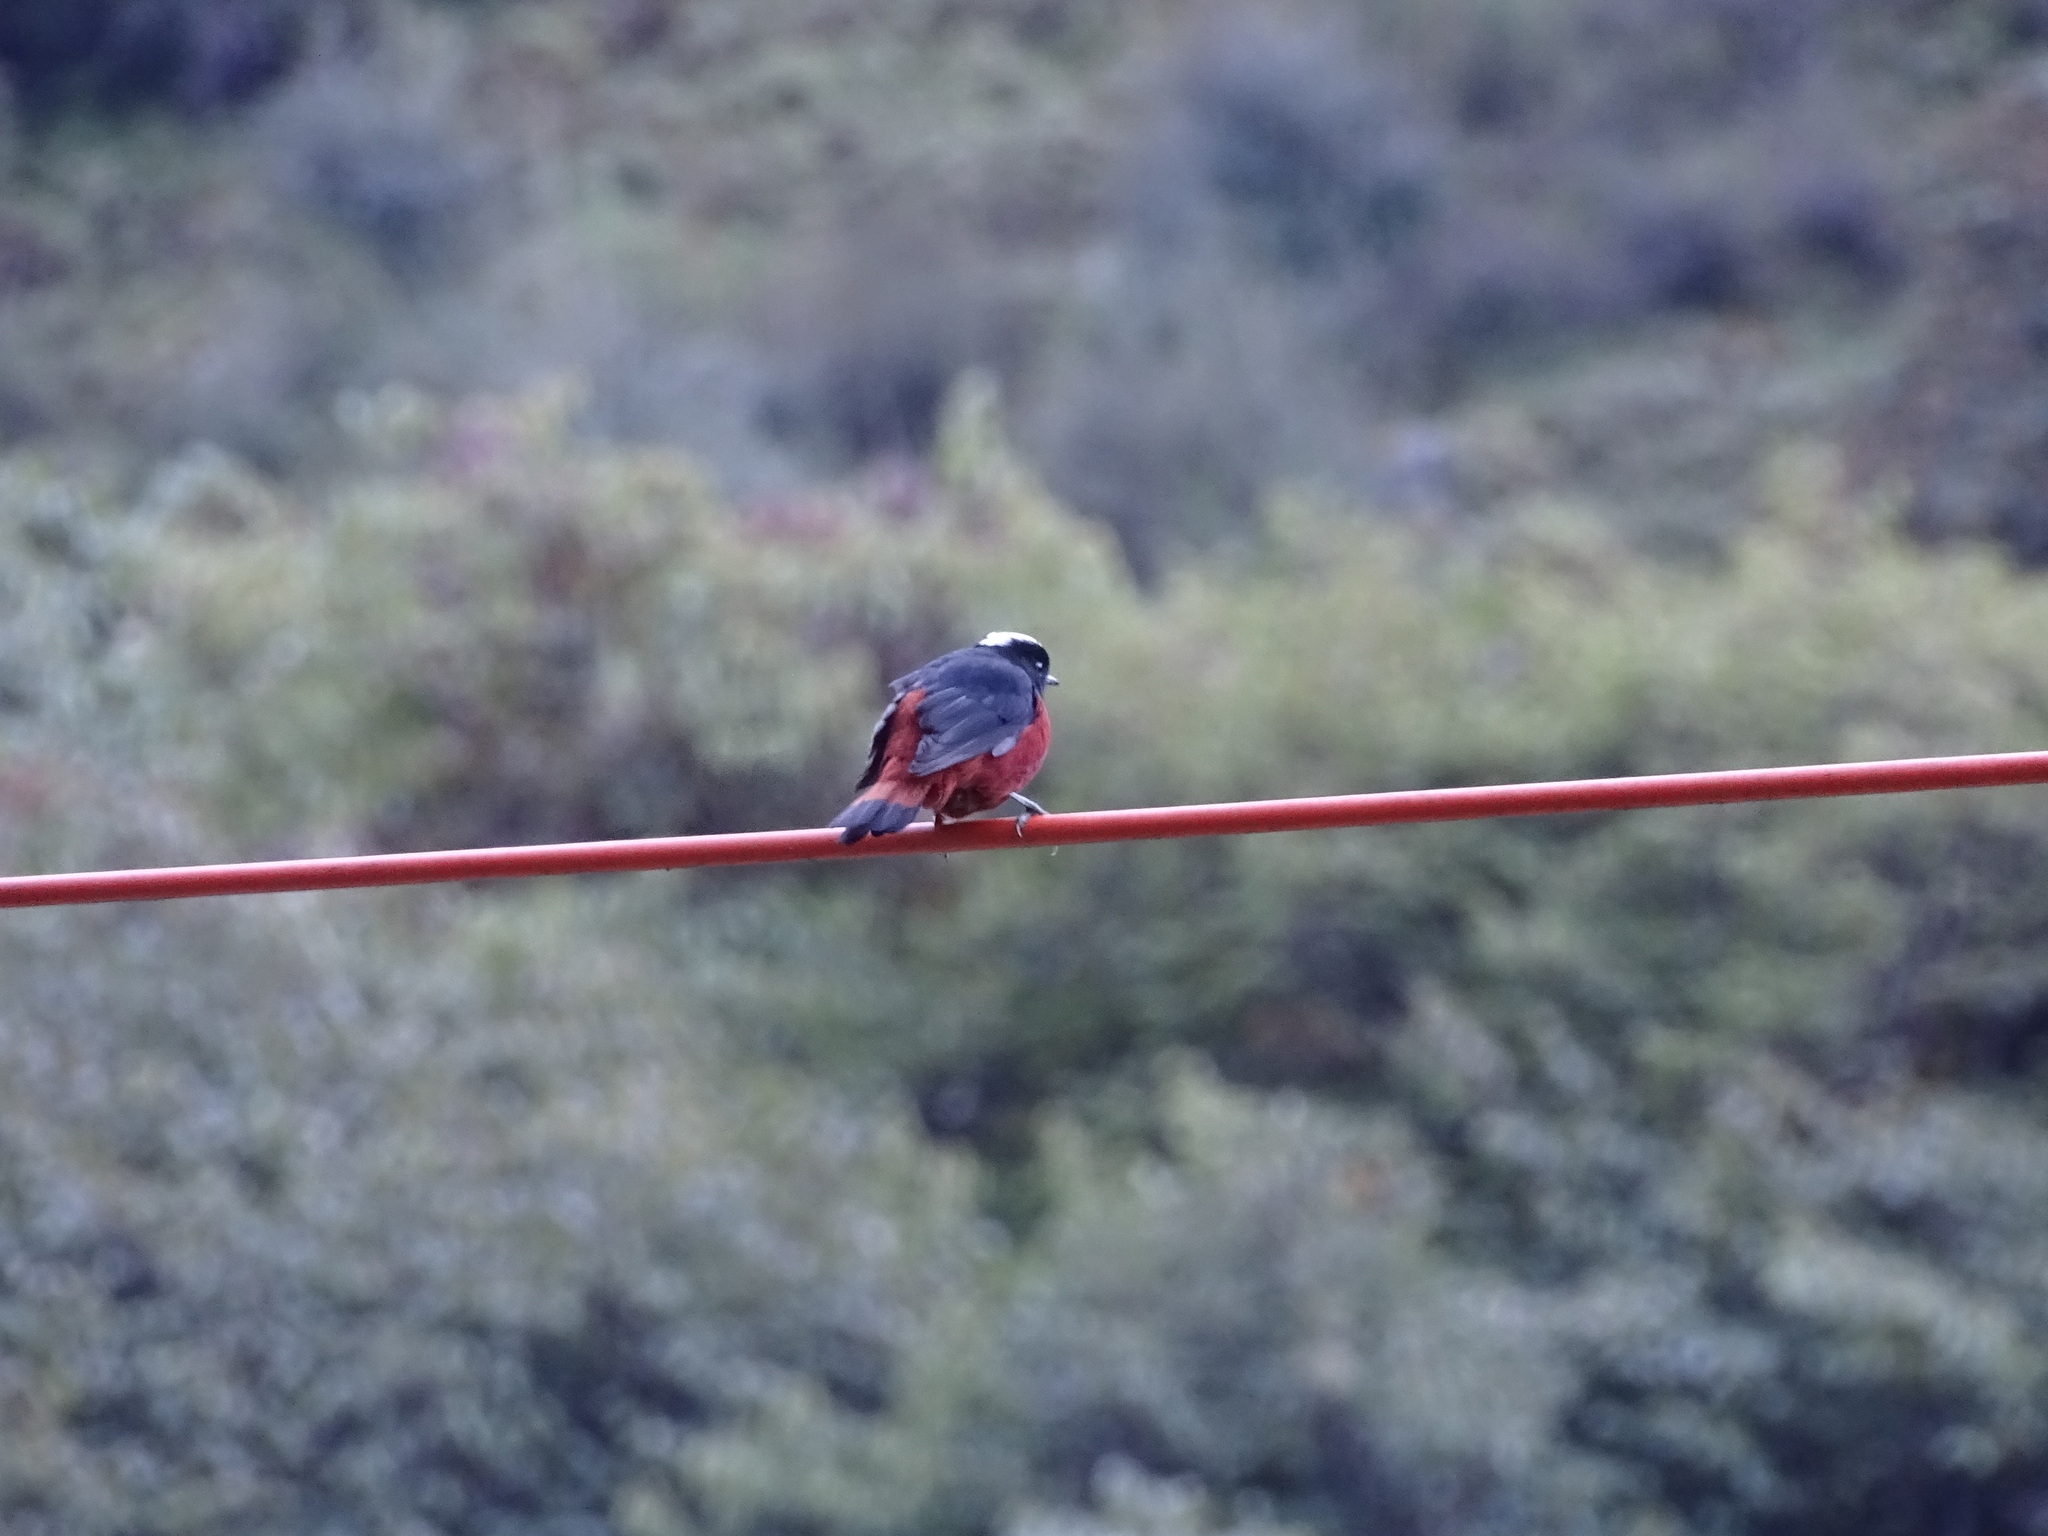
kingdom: Animalia
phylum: Chordata
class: Aves
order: Passeriformes
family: Muscicapidae
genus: Chaimarrornis
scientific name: Chaimarrornis leucocephalus
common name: White-capped redstart
